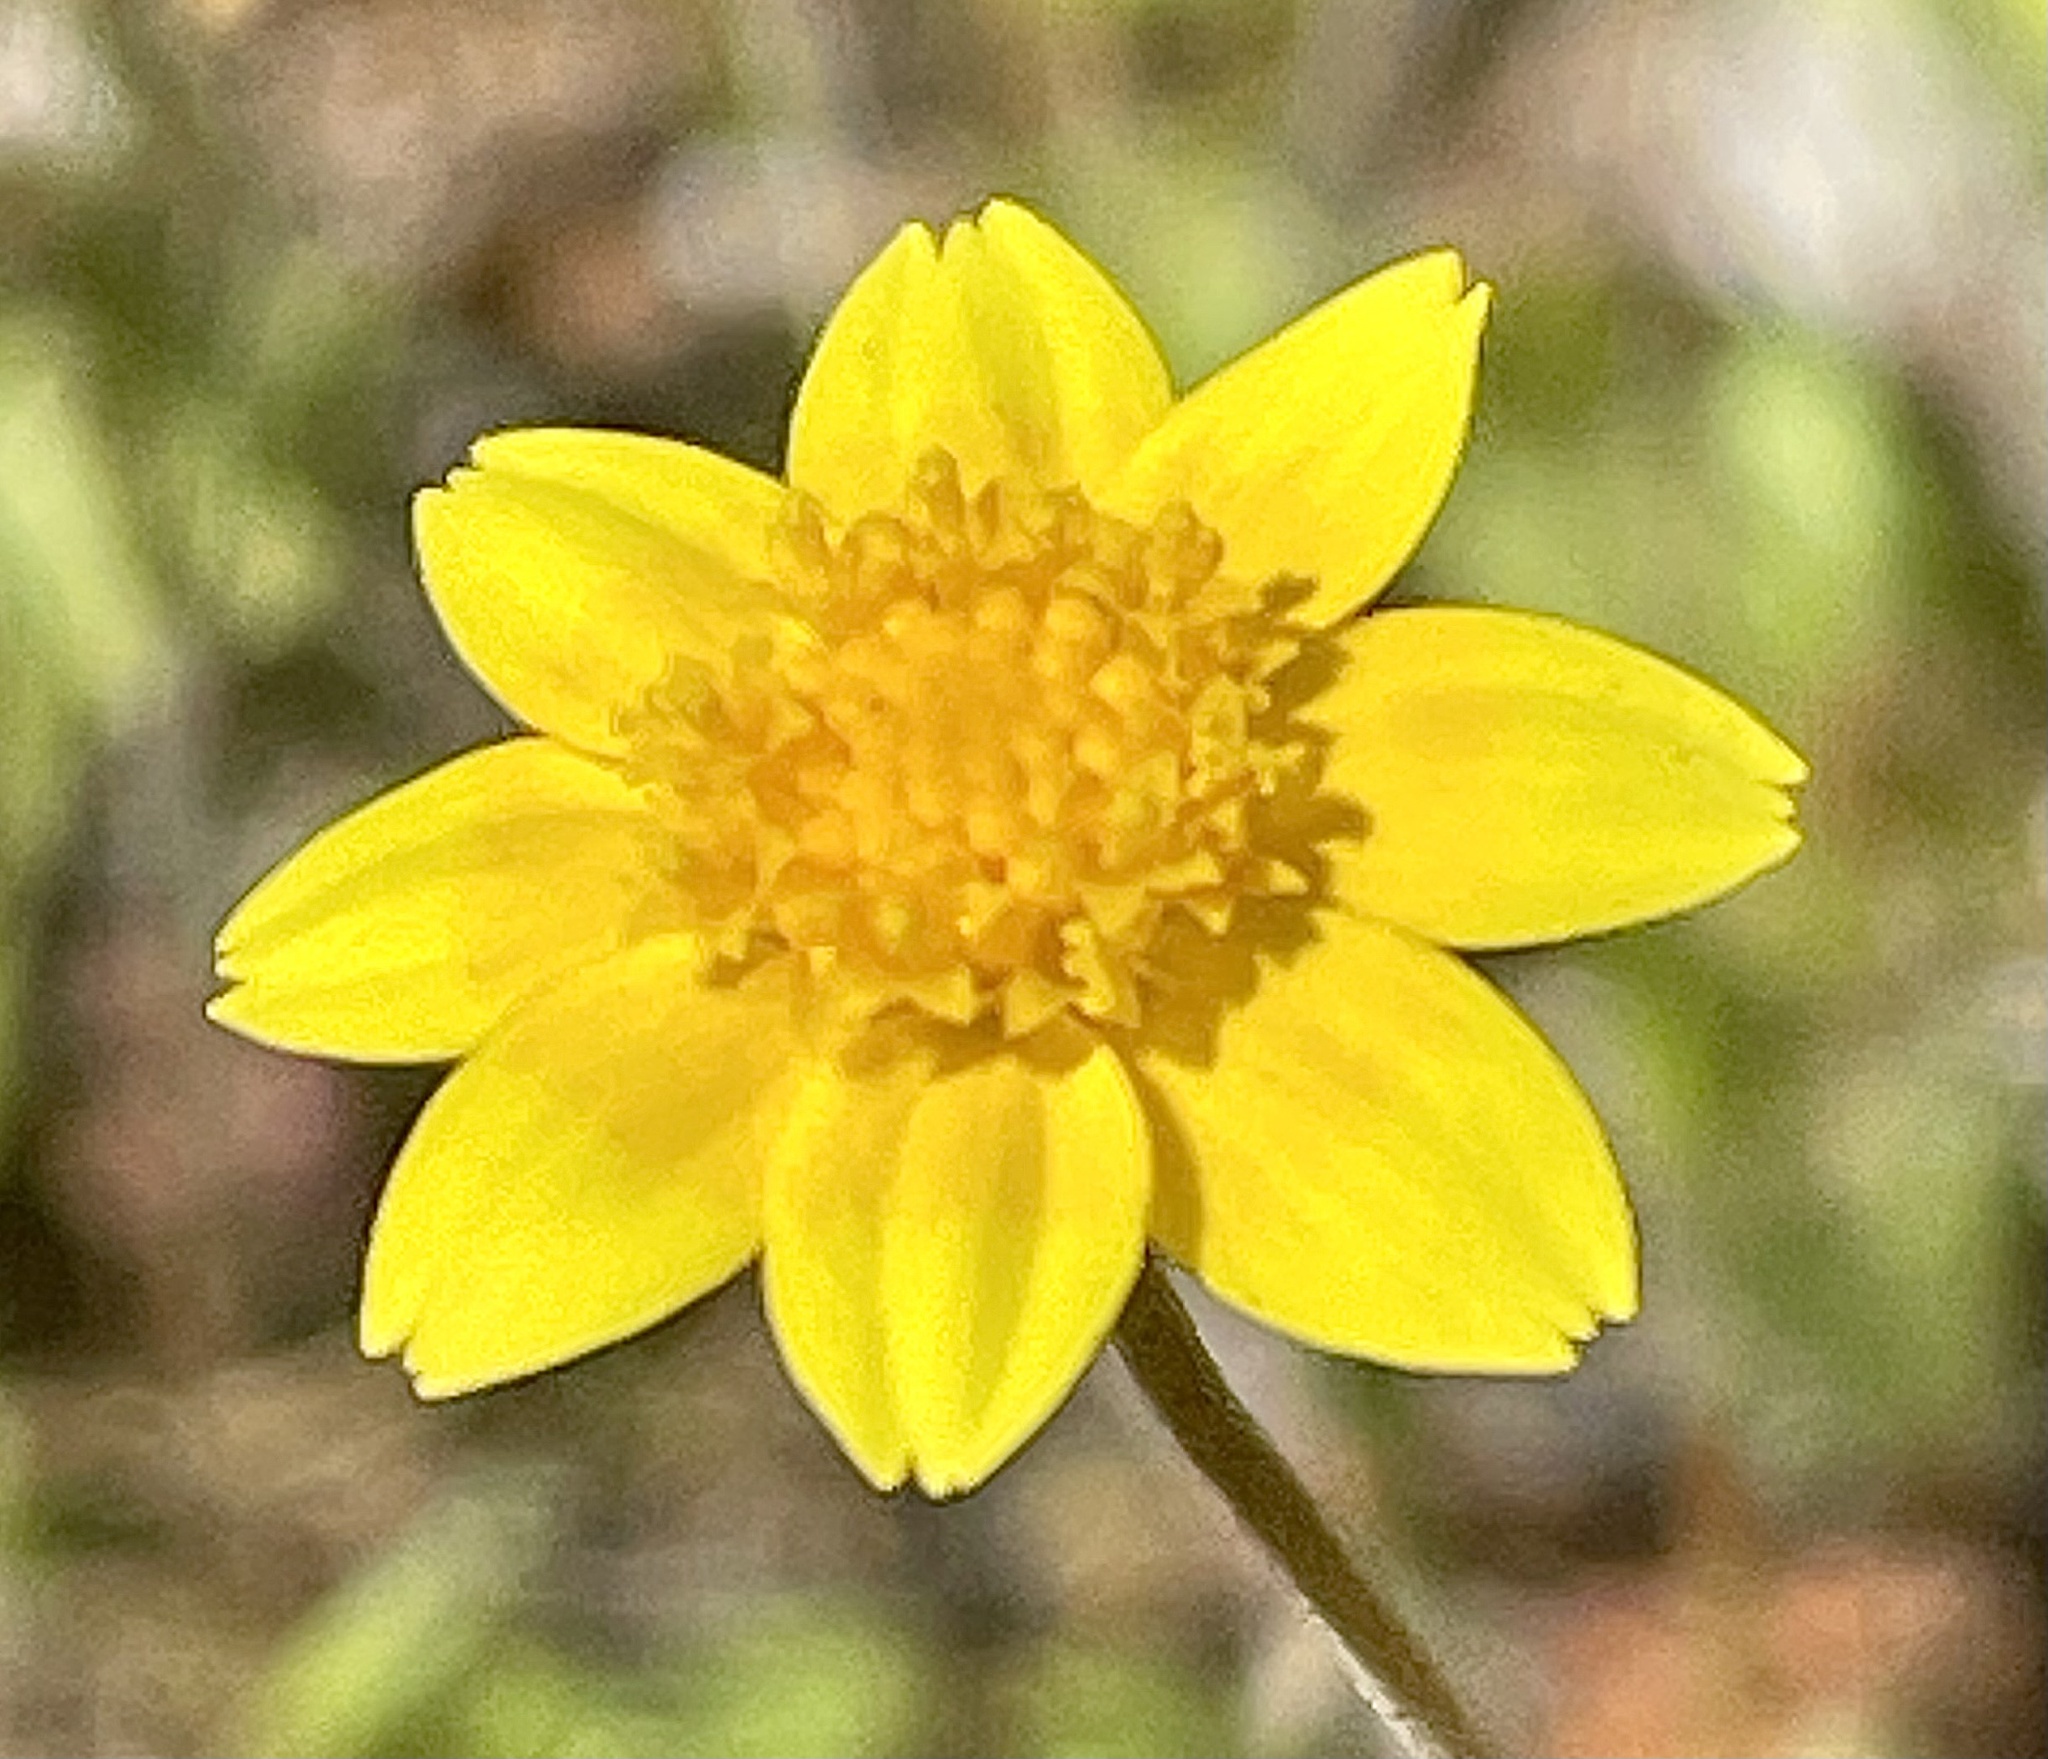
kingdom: Plantae
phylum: Tracheophyta
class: Magnoliopsida
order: Asterales
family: Asteraceae
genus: Lasthenia
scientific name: Lasthenia gracilis
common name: Common goldfields
